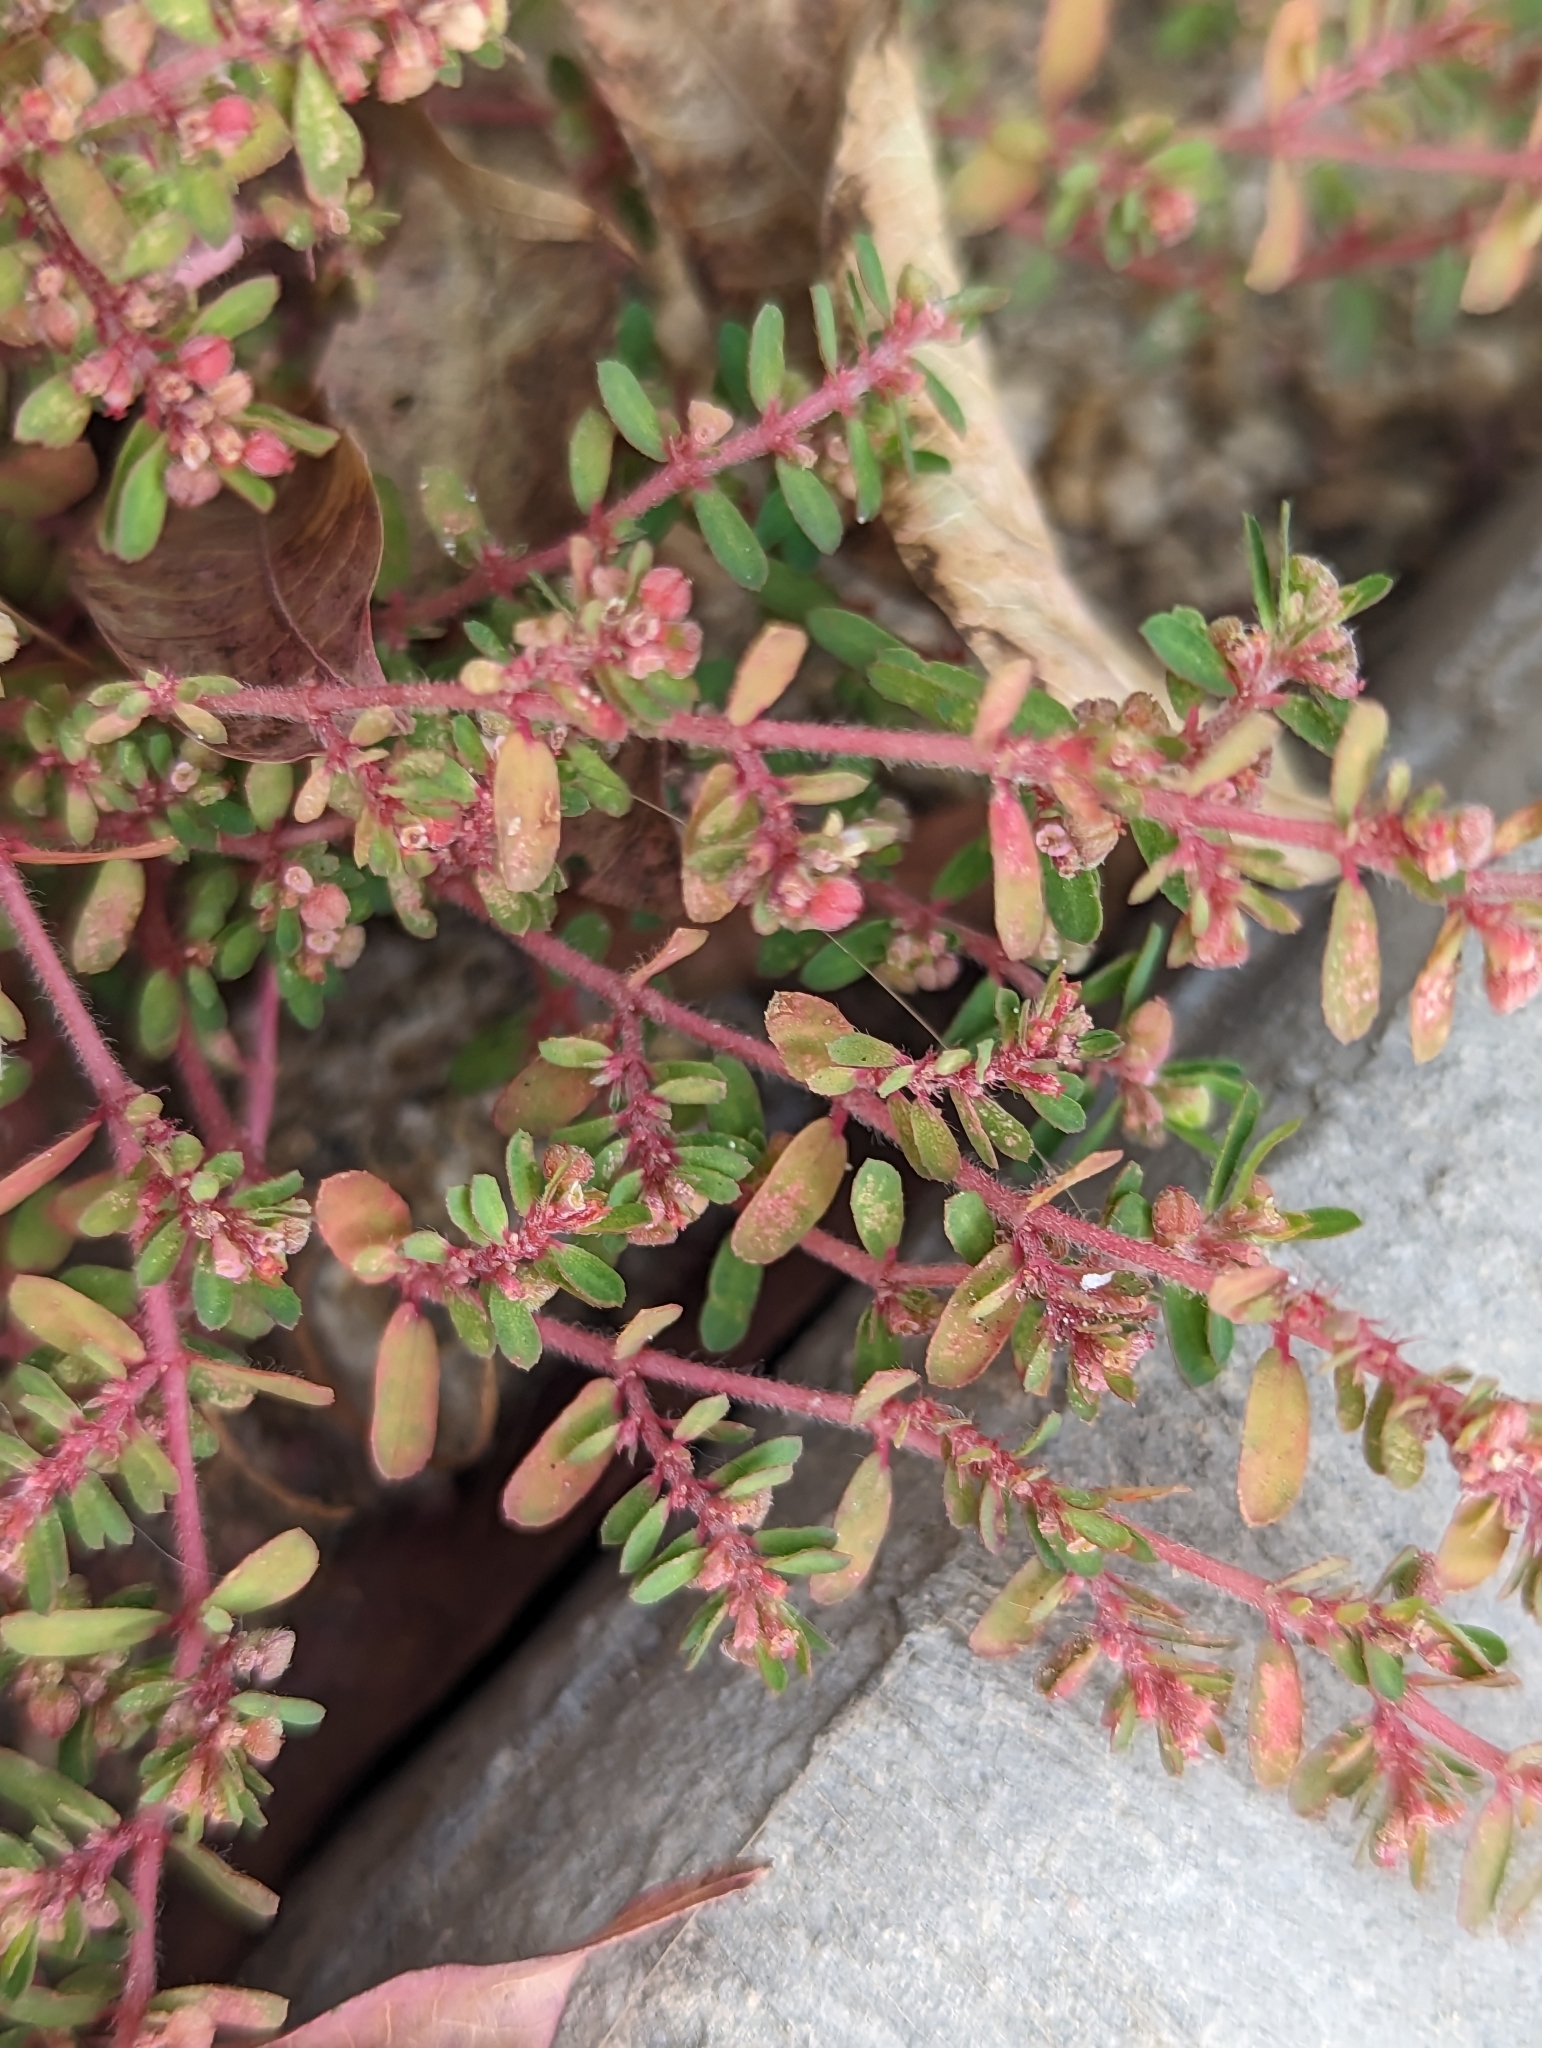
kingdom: Plantae
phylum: Tracheophyta
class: Magnoliopsida
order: Malpighiales
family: Euphorbiaceae
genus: Euphorbia
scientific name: Euphorbia maculata
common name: Spotted spurge
